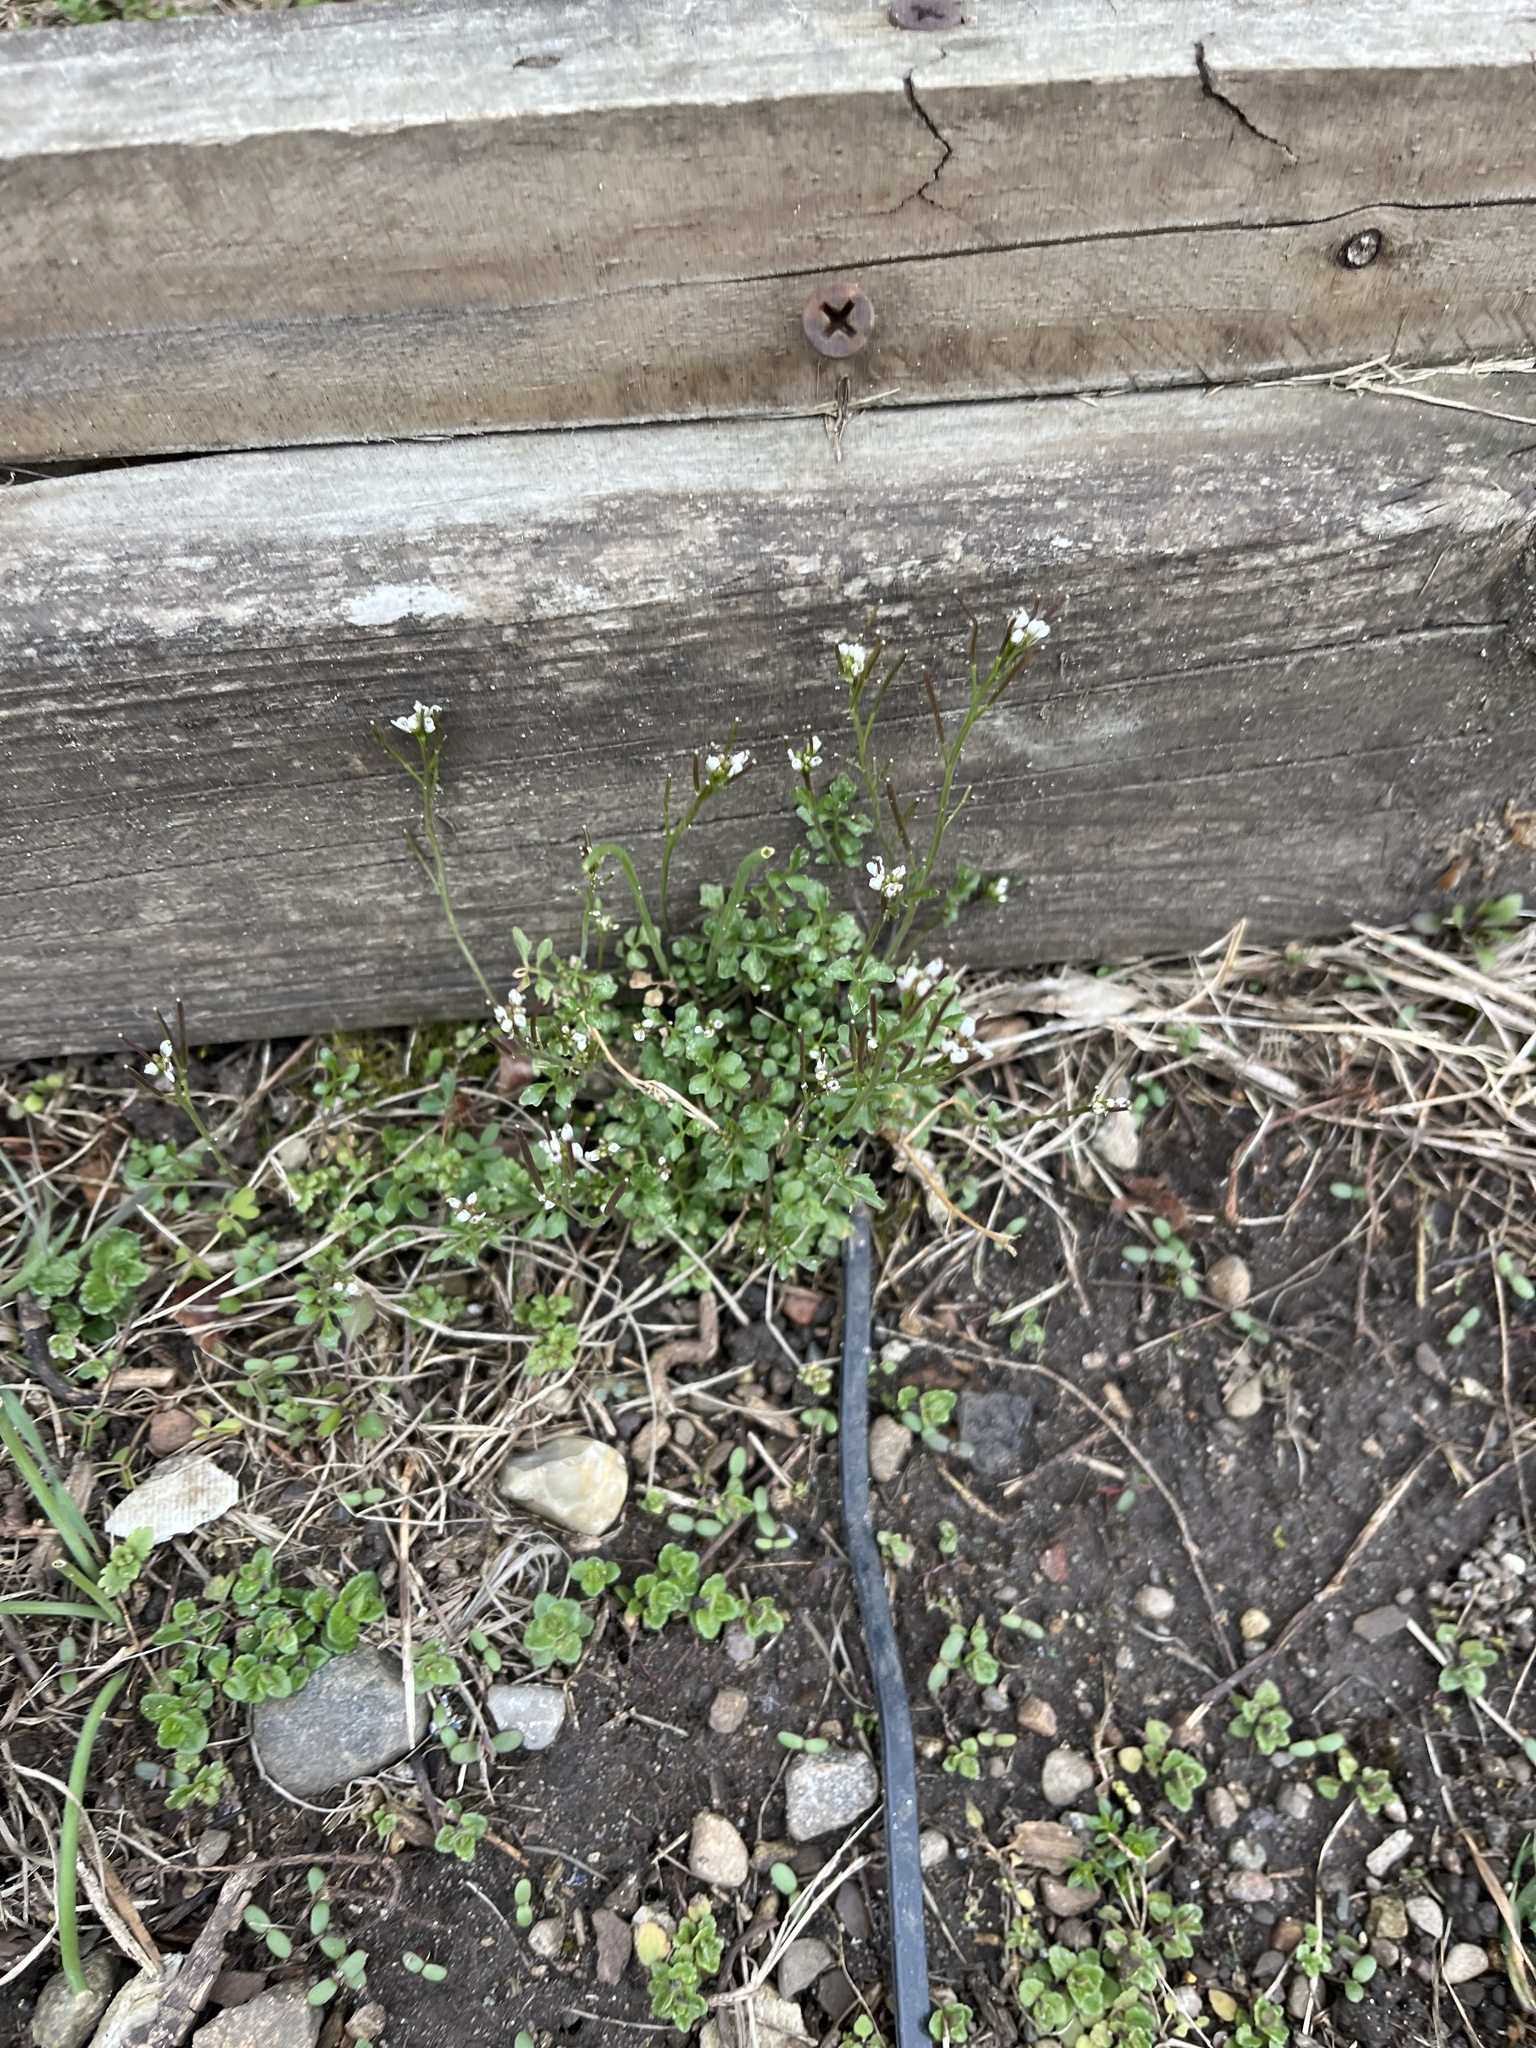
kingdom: Plantae
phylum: Tracheophyta
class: Magnoliopsida
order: Brassicales
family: Brassicaceae
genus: Cardamine
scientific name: Cardamine hirsuta
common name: Hairy bittercress
